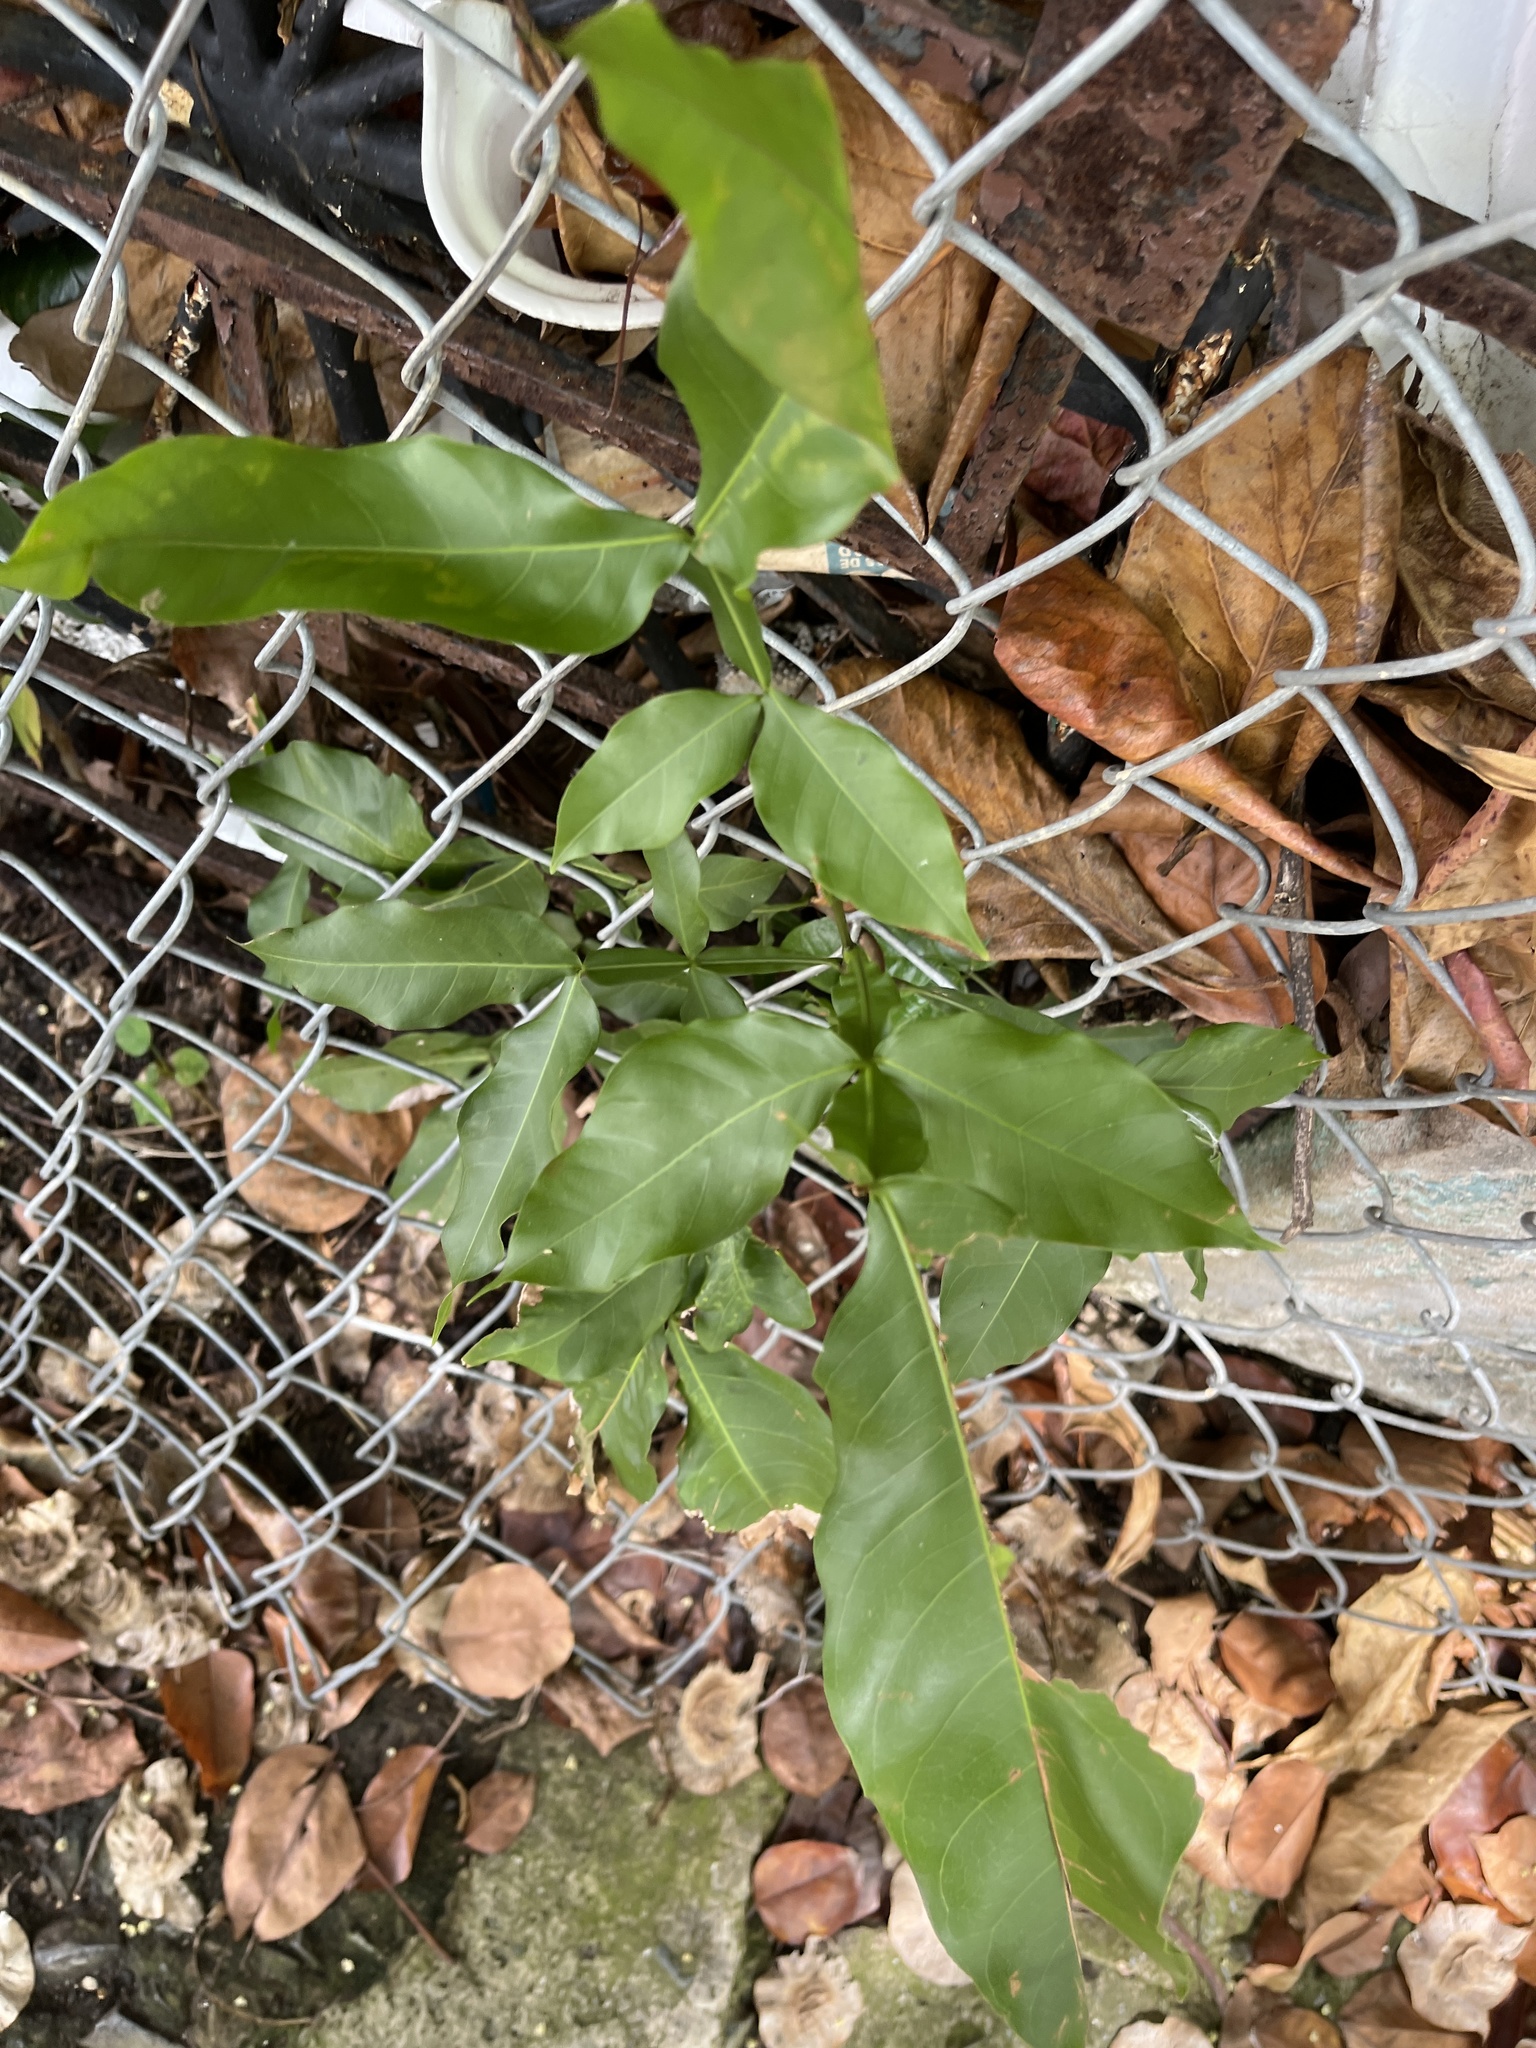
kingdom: Plantae
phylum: Tracheophyta
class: Magnoliopsida
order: Sapindales
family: Sapindaceae
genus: Melicoccus
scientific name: Melicoccus bijugatus
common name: Spanish lime
